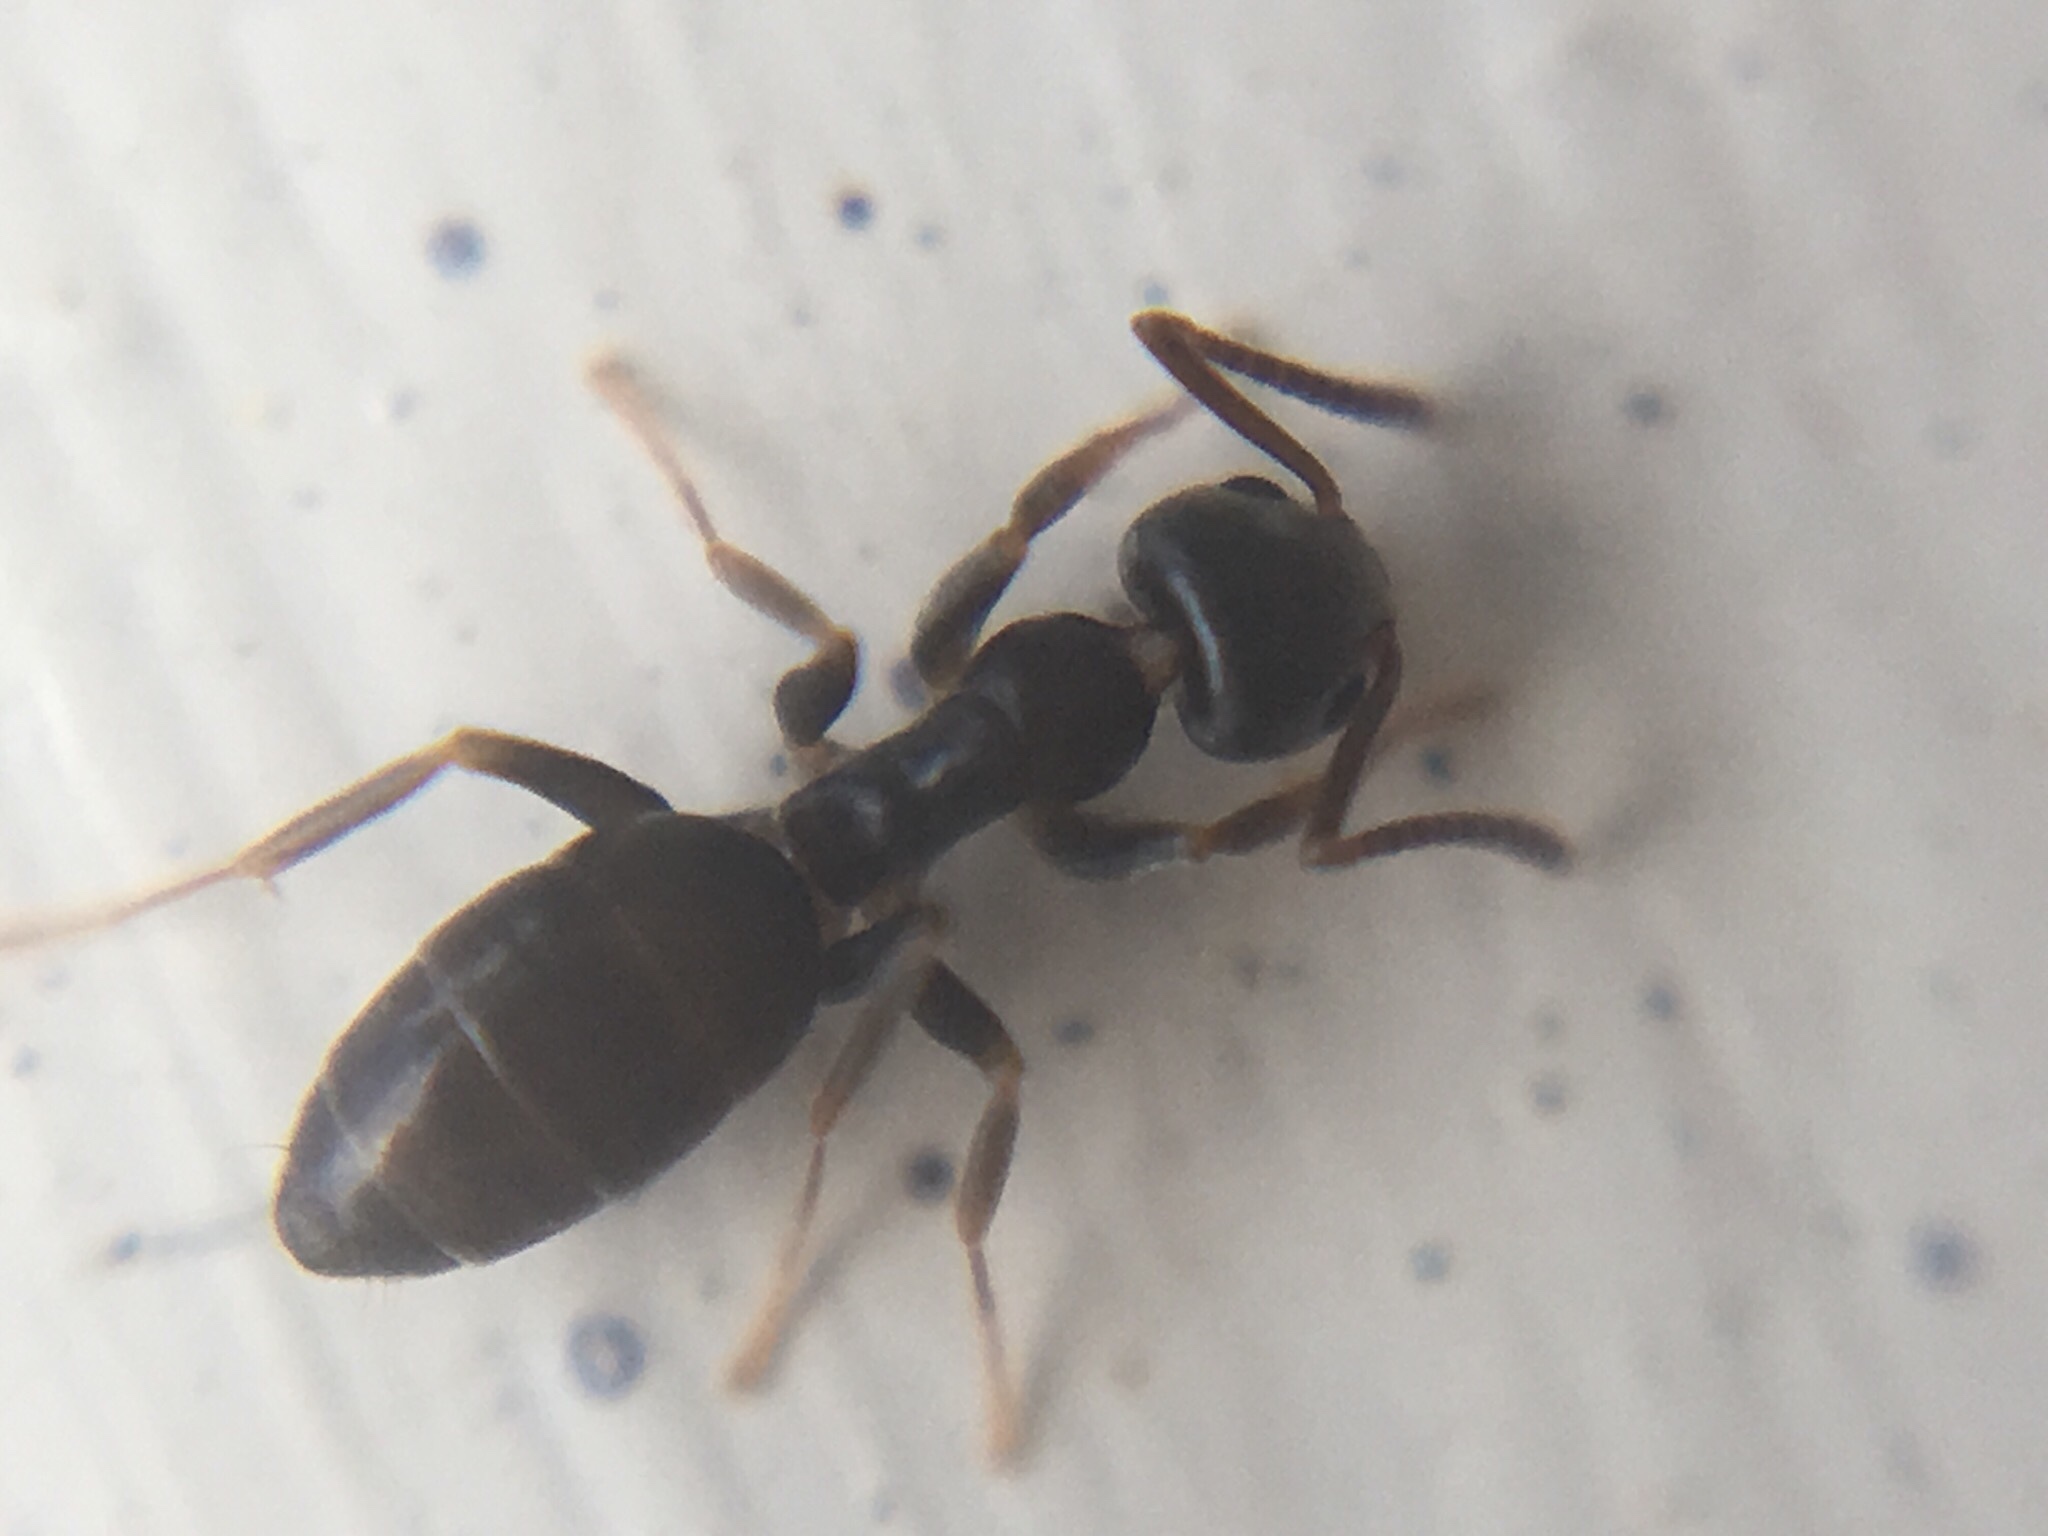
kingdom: Animalia
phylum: Arthropoda
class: Insecta
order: Hymenoptera
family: Formicidae
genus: Tapinoma
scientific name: Tapinoma sessile
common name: Odorous house ant
